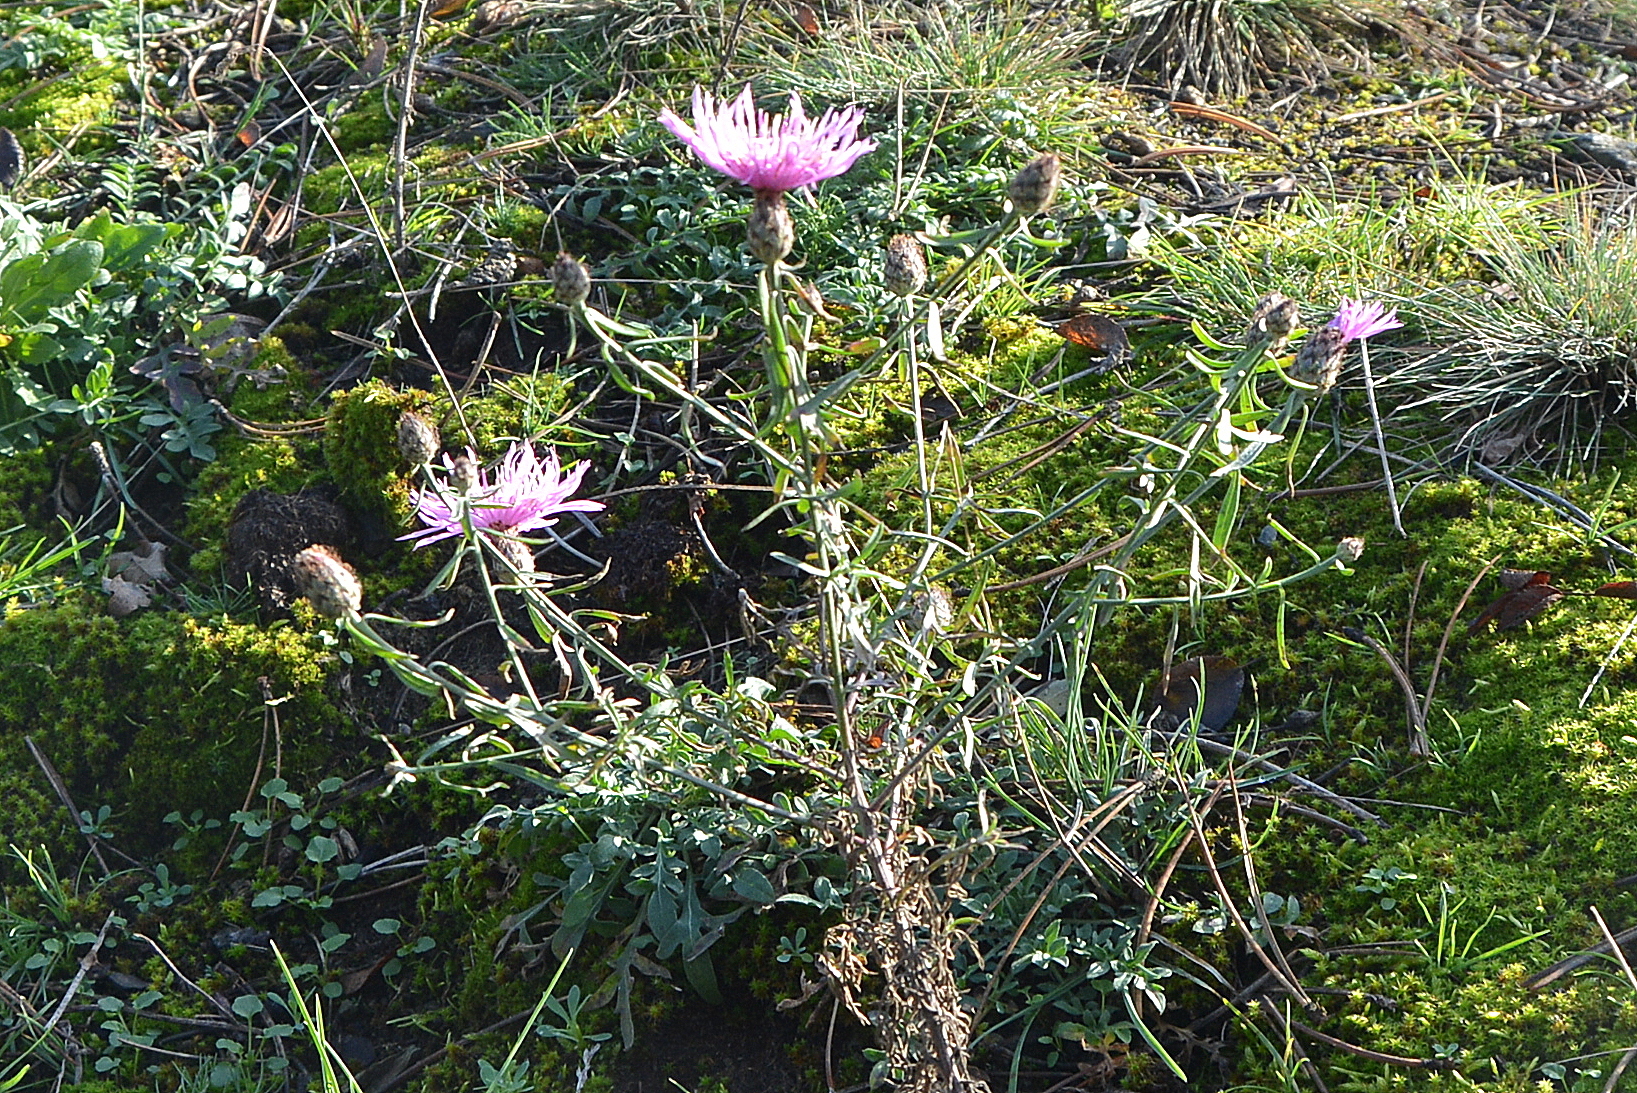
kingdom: Plantae
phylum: Tracheophyta
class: Magnoliopsida
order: Asterales
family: Asteraceae
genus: Centaurea
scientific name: Centaurea stoebe
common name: Spotted knapweed
